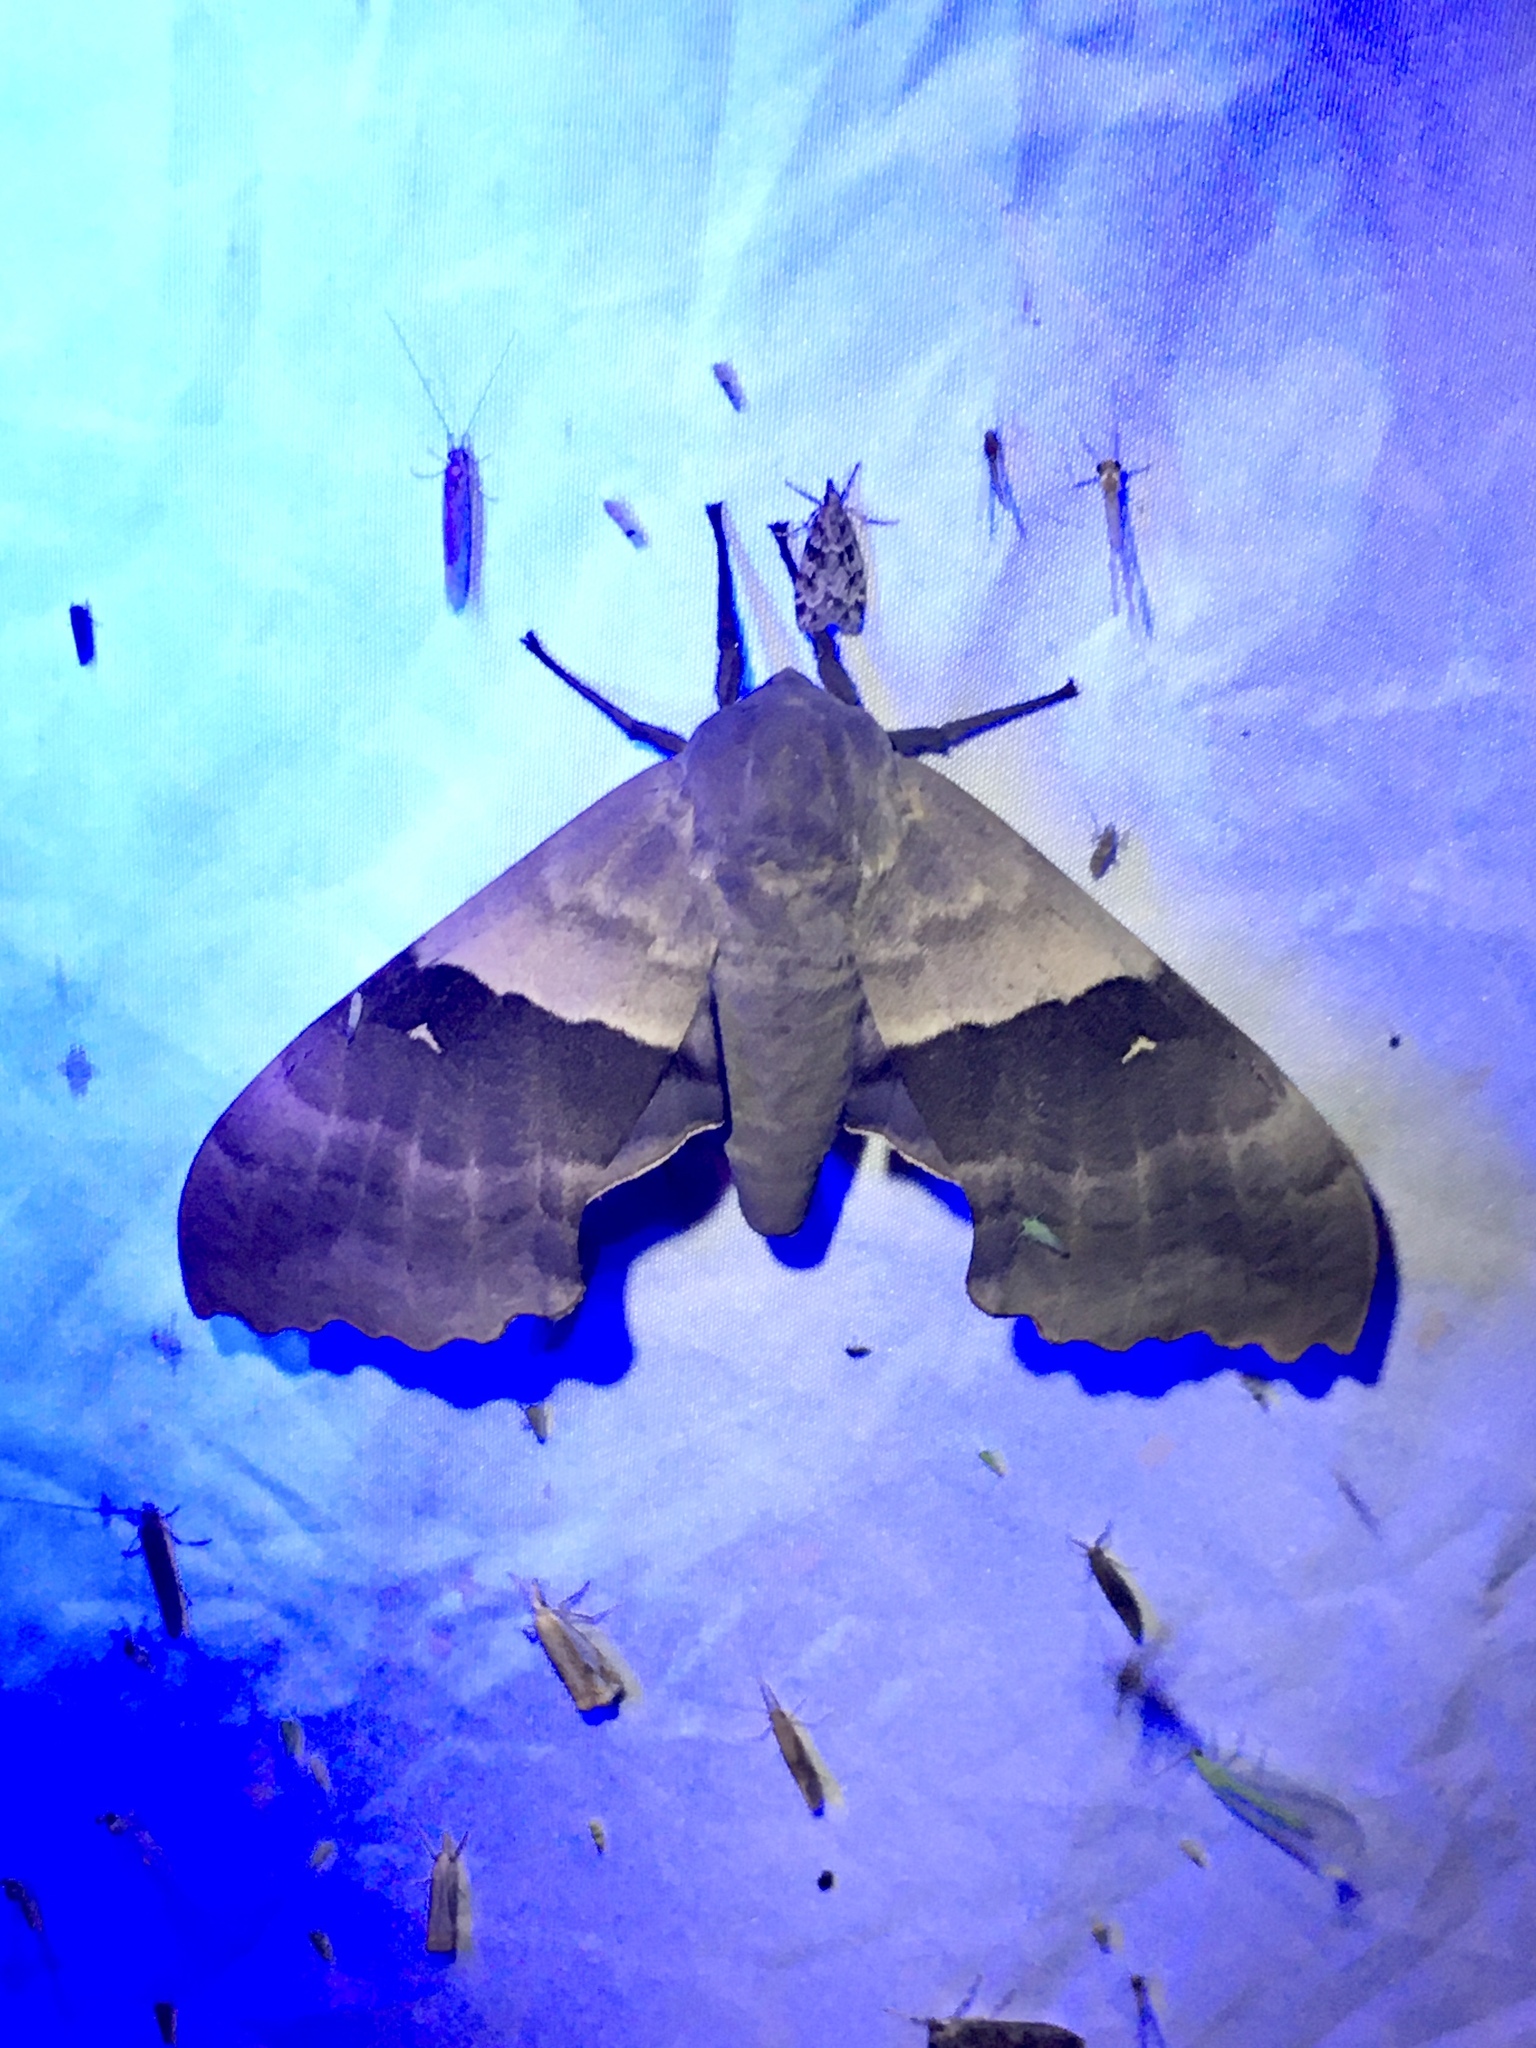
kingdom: Animalia
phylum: Arthropoda
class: Insecta
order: Lepidoptera
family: Sphingidae
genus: Pachysphinx
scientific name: Pachysphinx modesta
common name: Big poplar sphinx
